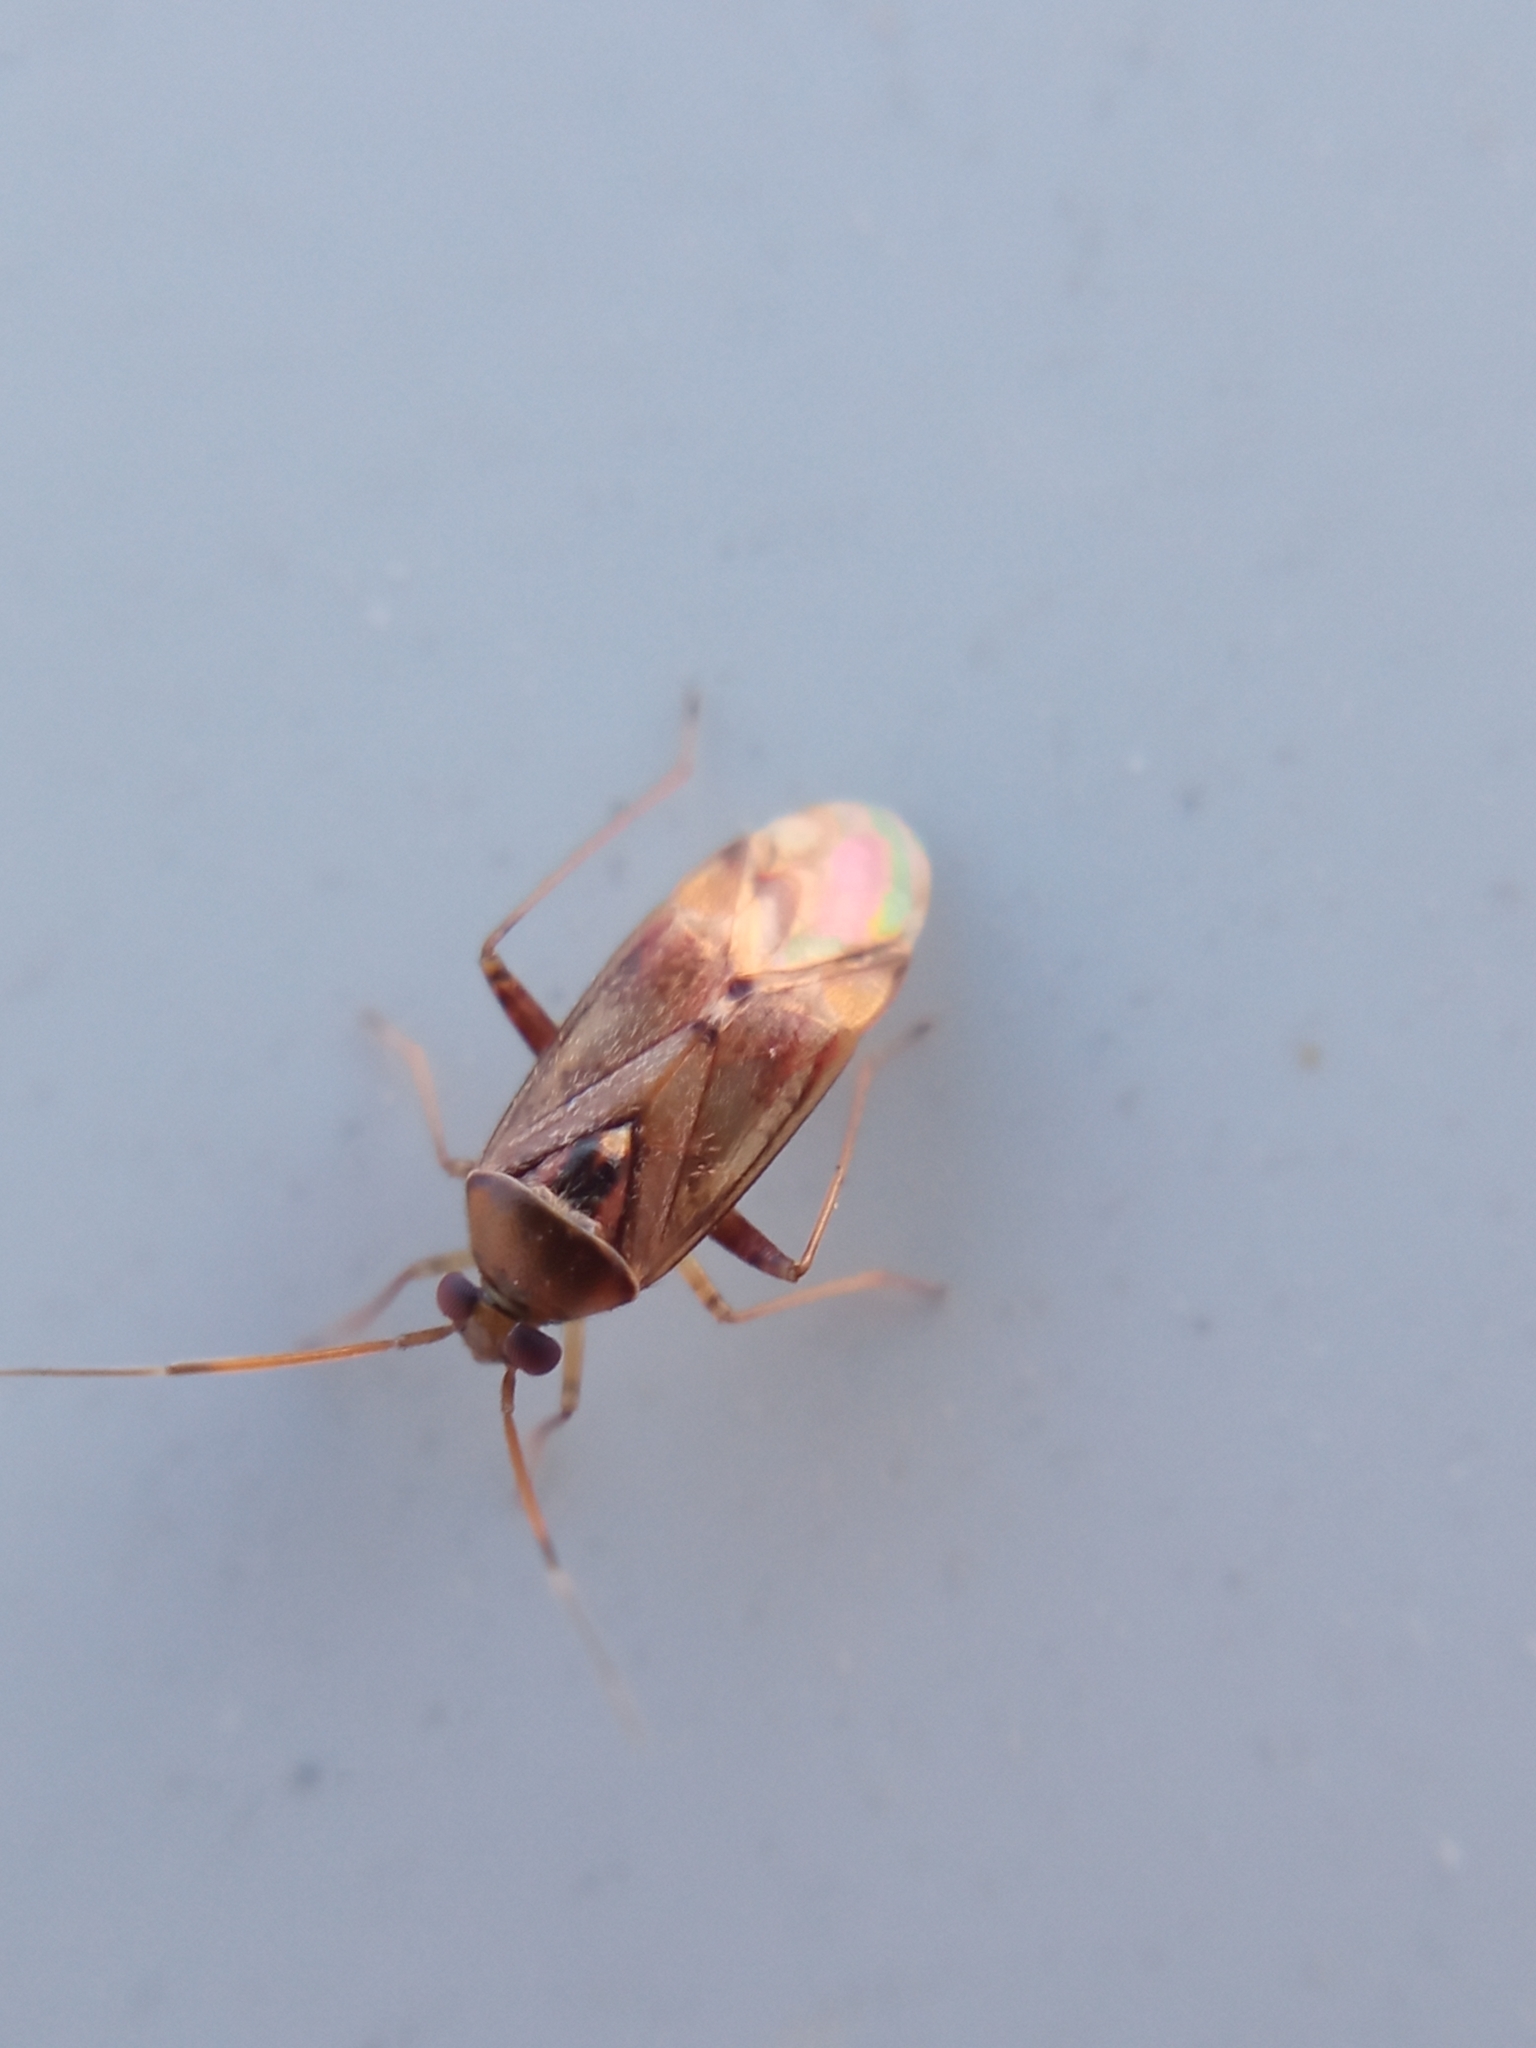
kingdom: Animalia
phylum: Arthropoda
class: Insecta
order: Hemiptera
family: Miridae
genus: Pinalitus
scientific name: Pinalitus cervinus
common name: Plant bug
